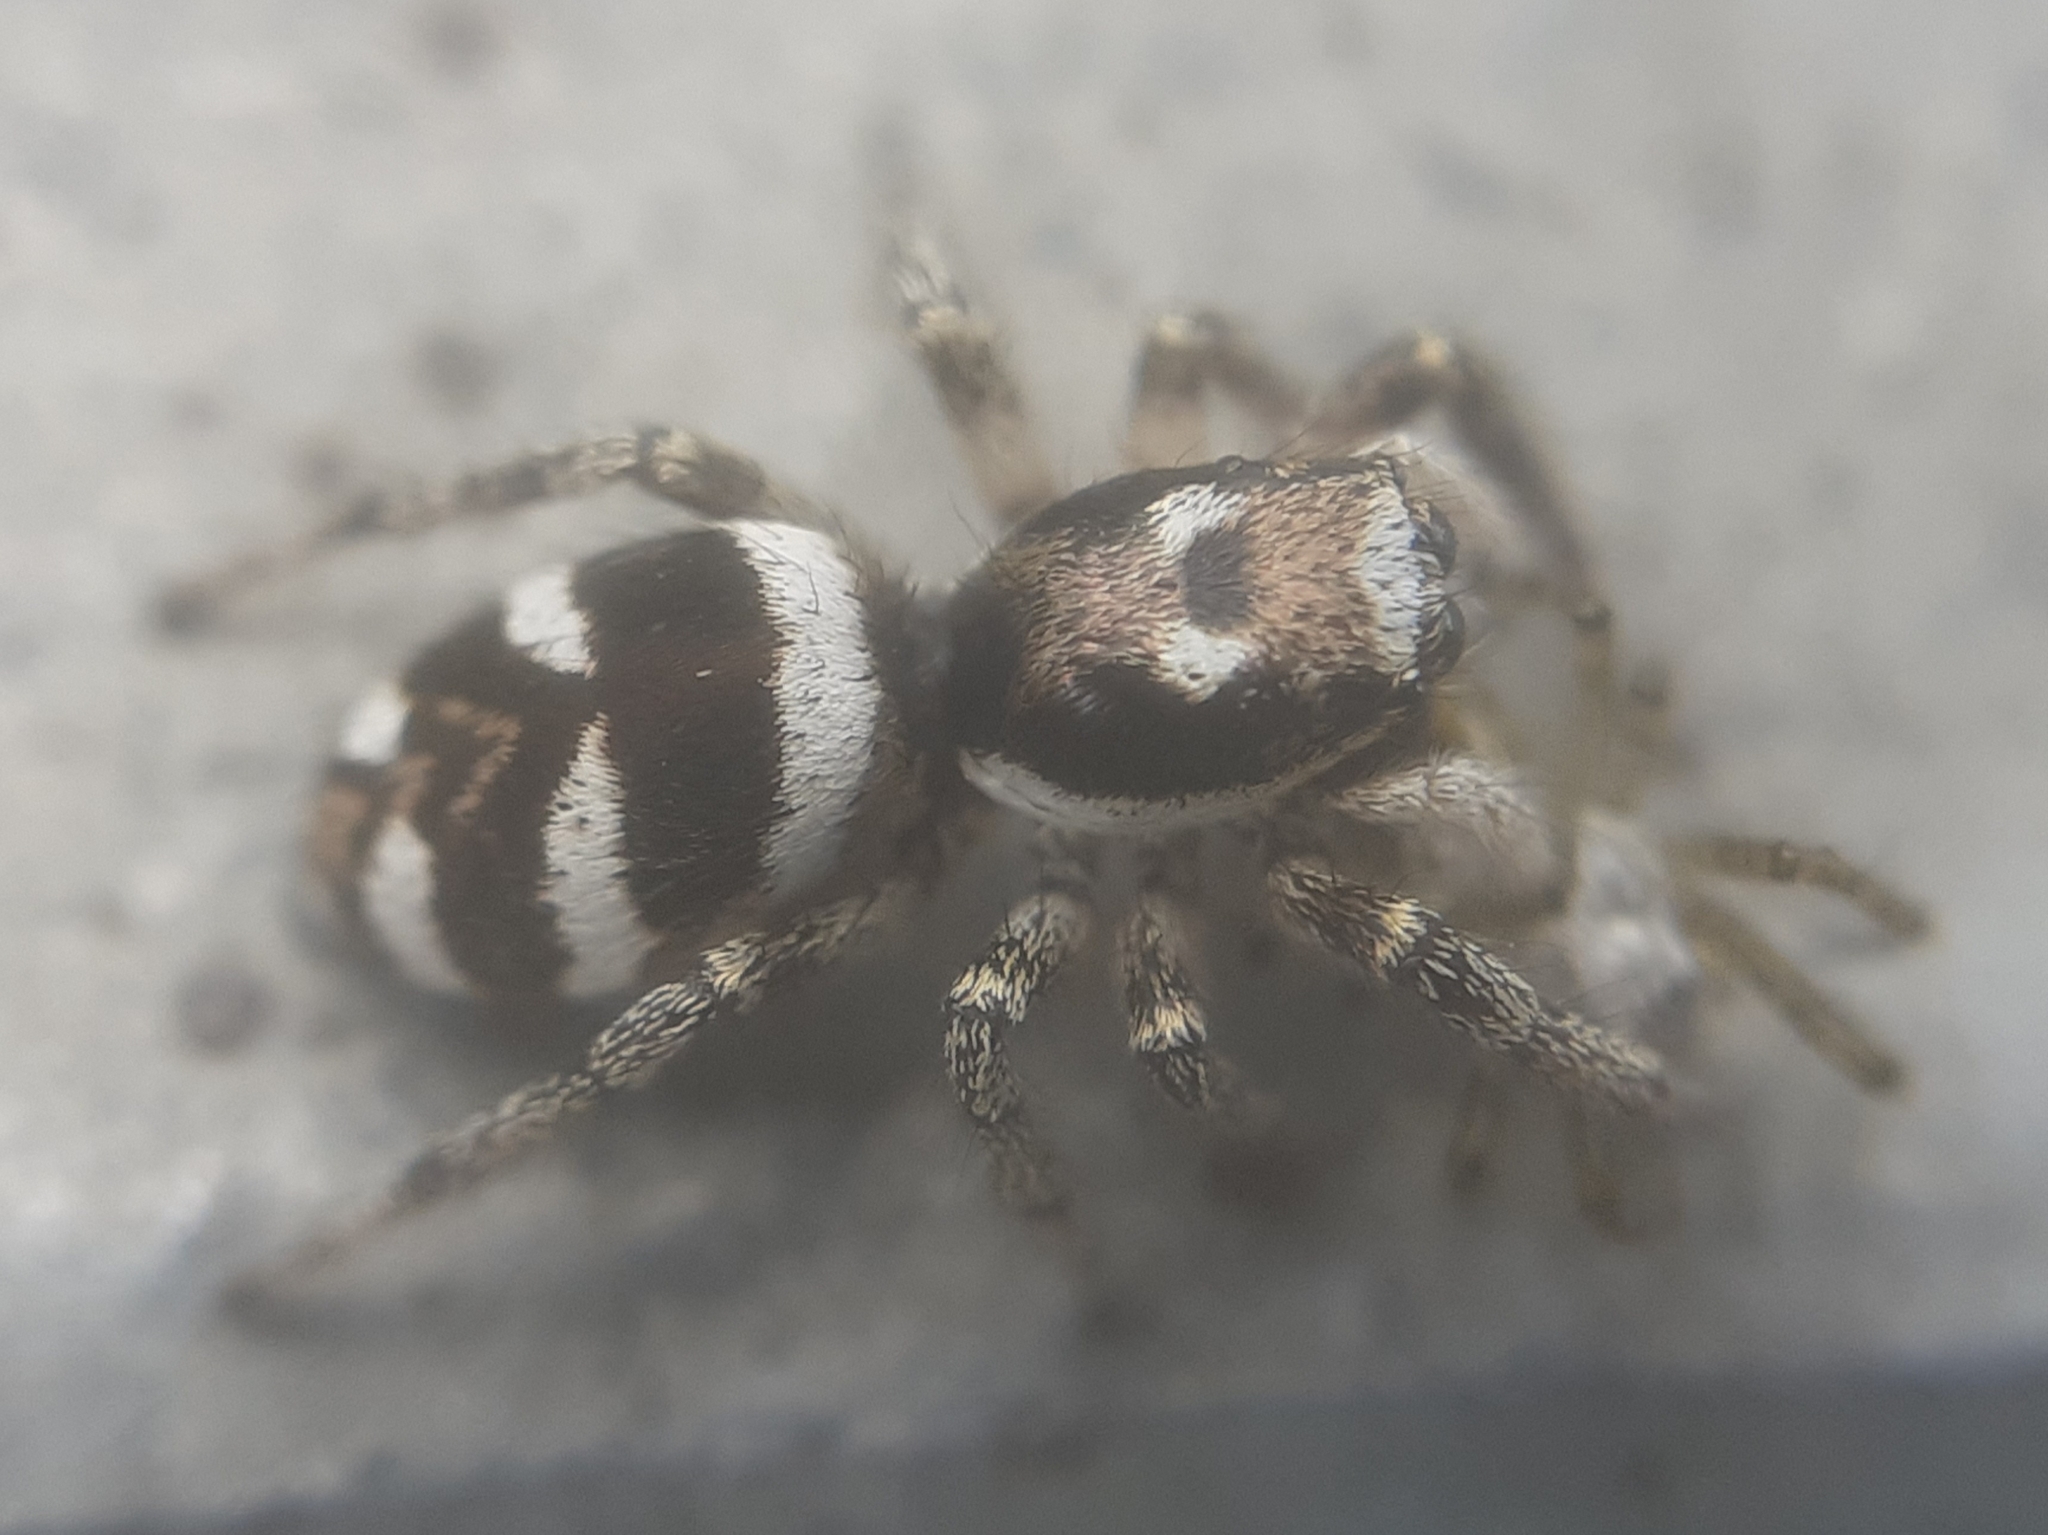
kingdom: Animalia
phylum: Arthropoda
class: Arachnida
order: Araneae
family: Salticidae
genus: Salticus
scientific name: Salticus scenicus
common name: Zebra jumper
